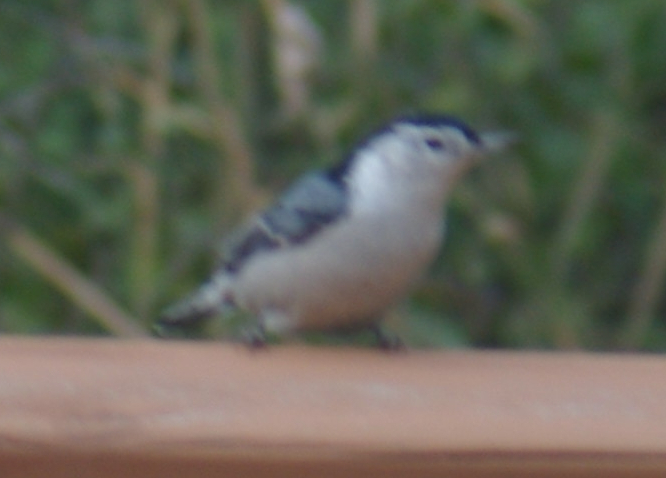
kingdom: Animalia
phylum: Chordata
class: Aves
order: Passeriformes
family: Sittidae
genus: Sitta
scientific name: Sitta carolinensis
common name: White-breasted nuthatch
